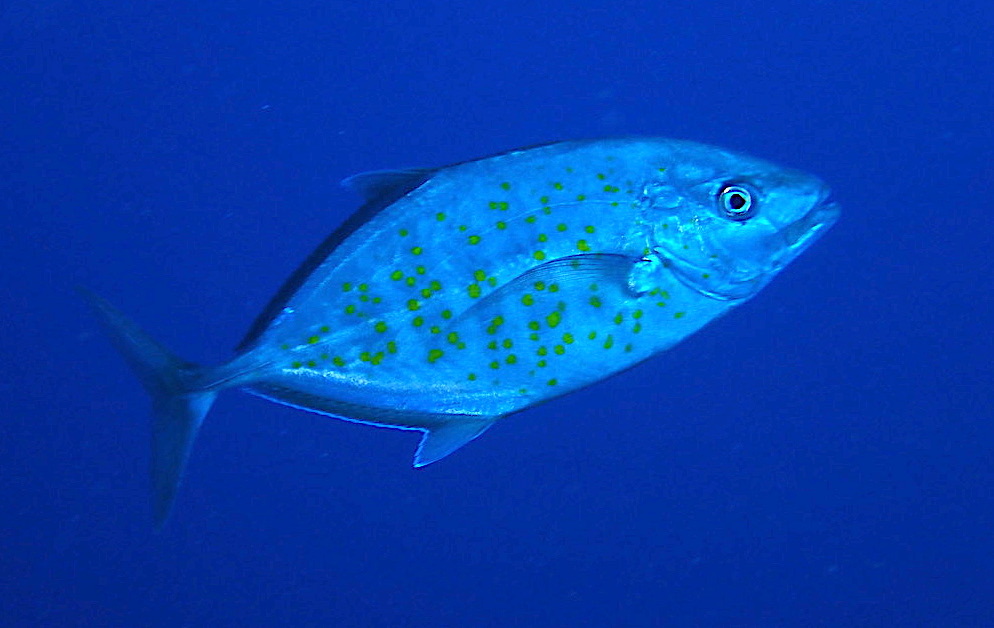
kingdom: Animalia
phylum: Chordata
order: Perciformes
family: Carangidae
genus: Flavocaranx
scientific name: Flavocaranx bajad
